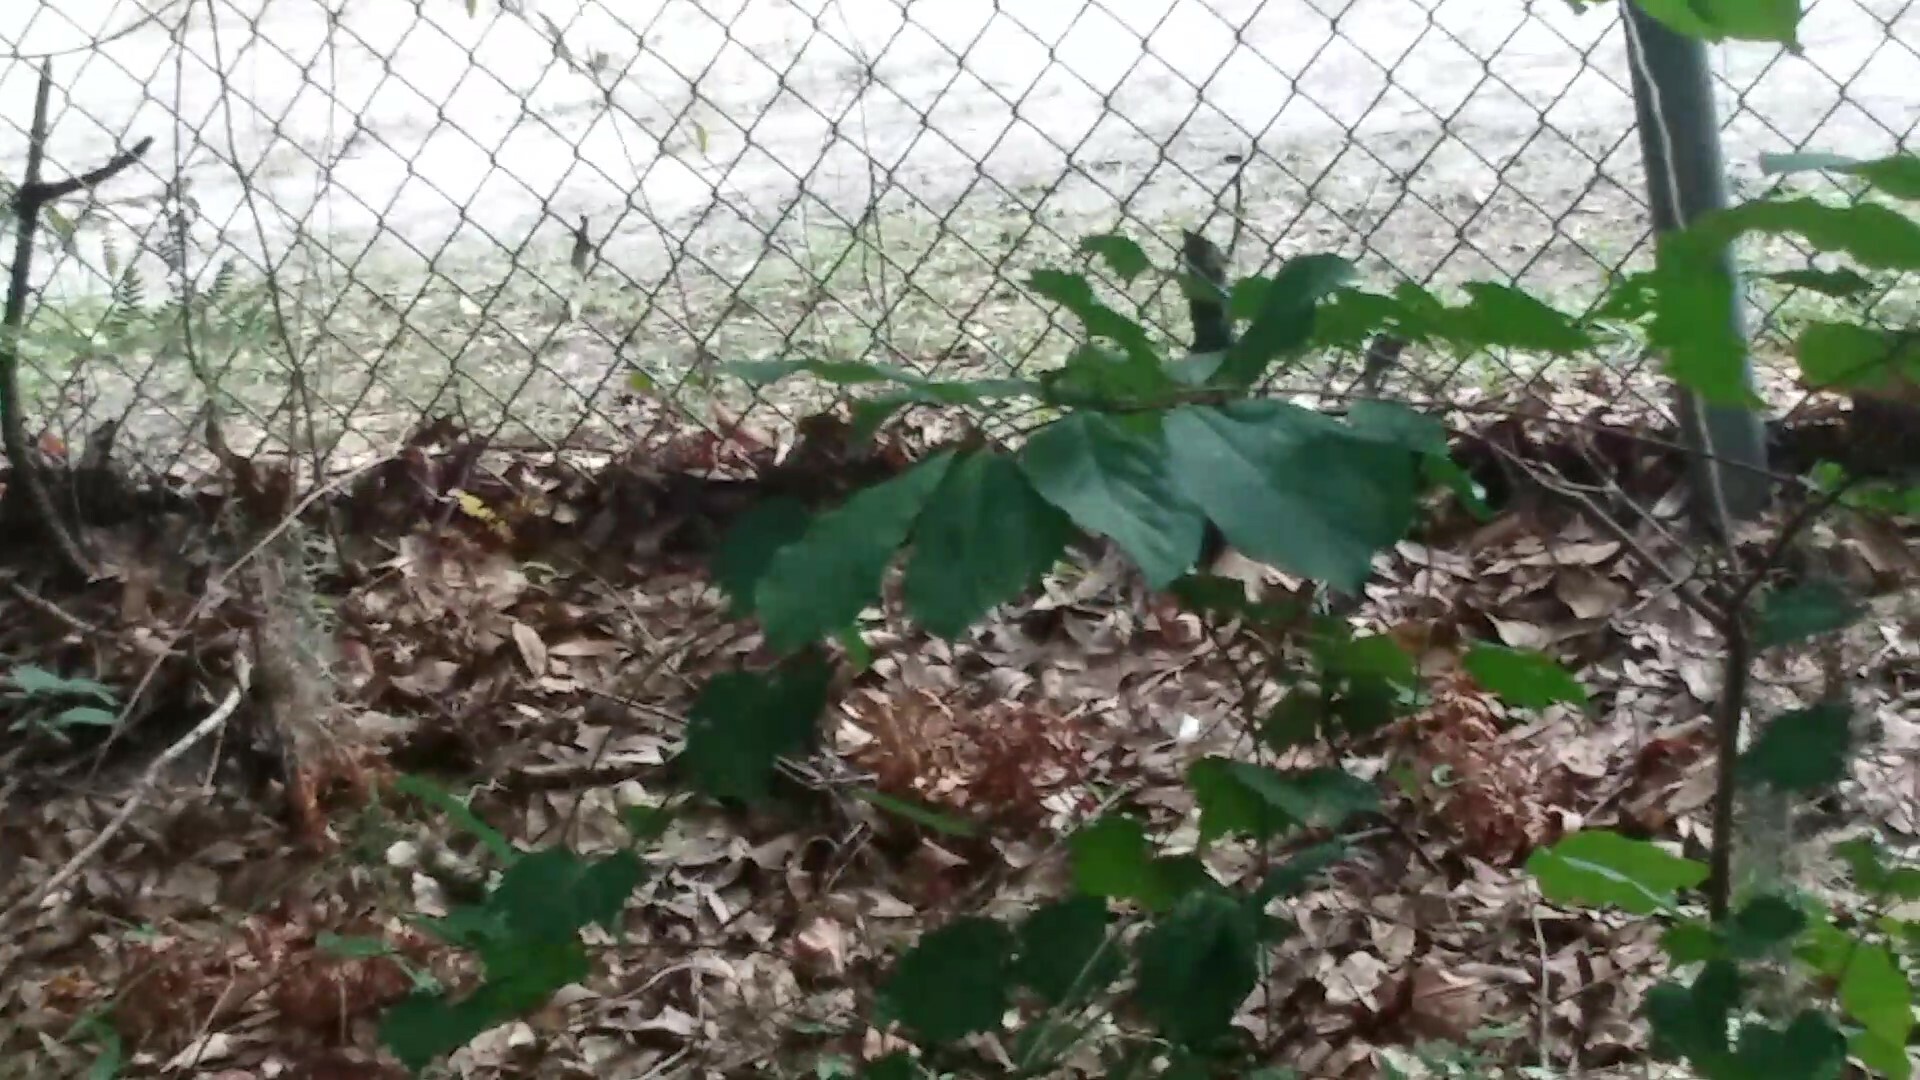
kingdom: Plantae
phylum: Tracheophyta
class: Magnoliopsida
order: Magnoliales
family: Annonaceae
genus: Asimina
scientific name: Asimina parviflora
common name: Dwarf pawpaw
